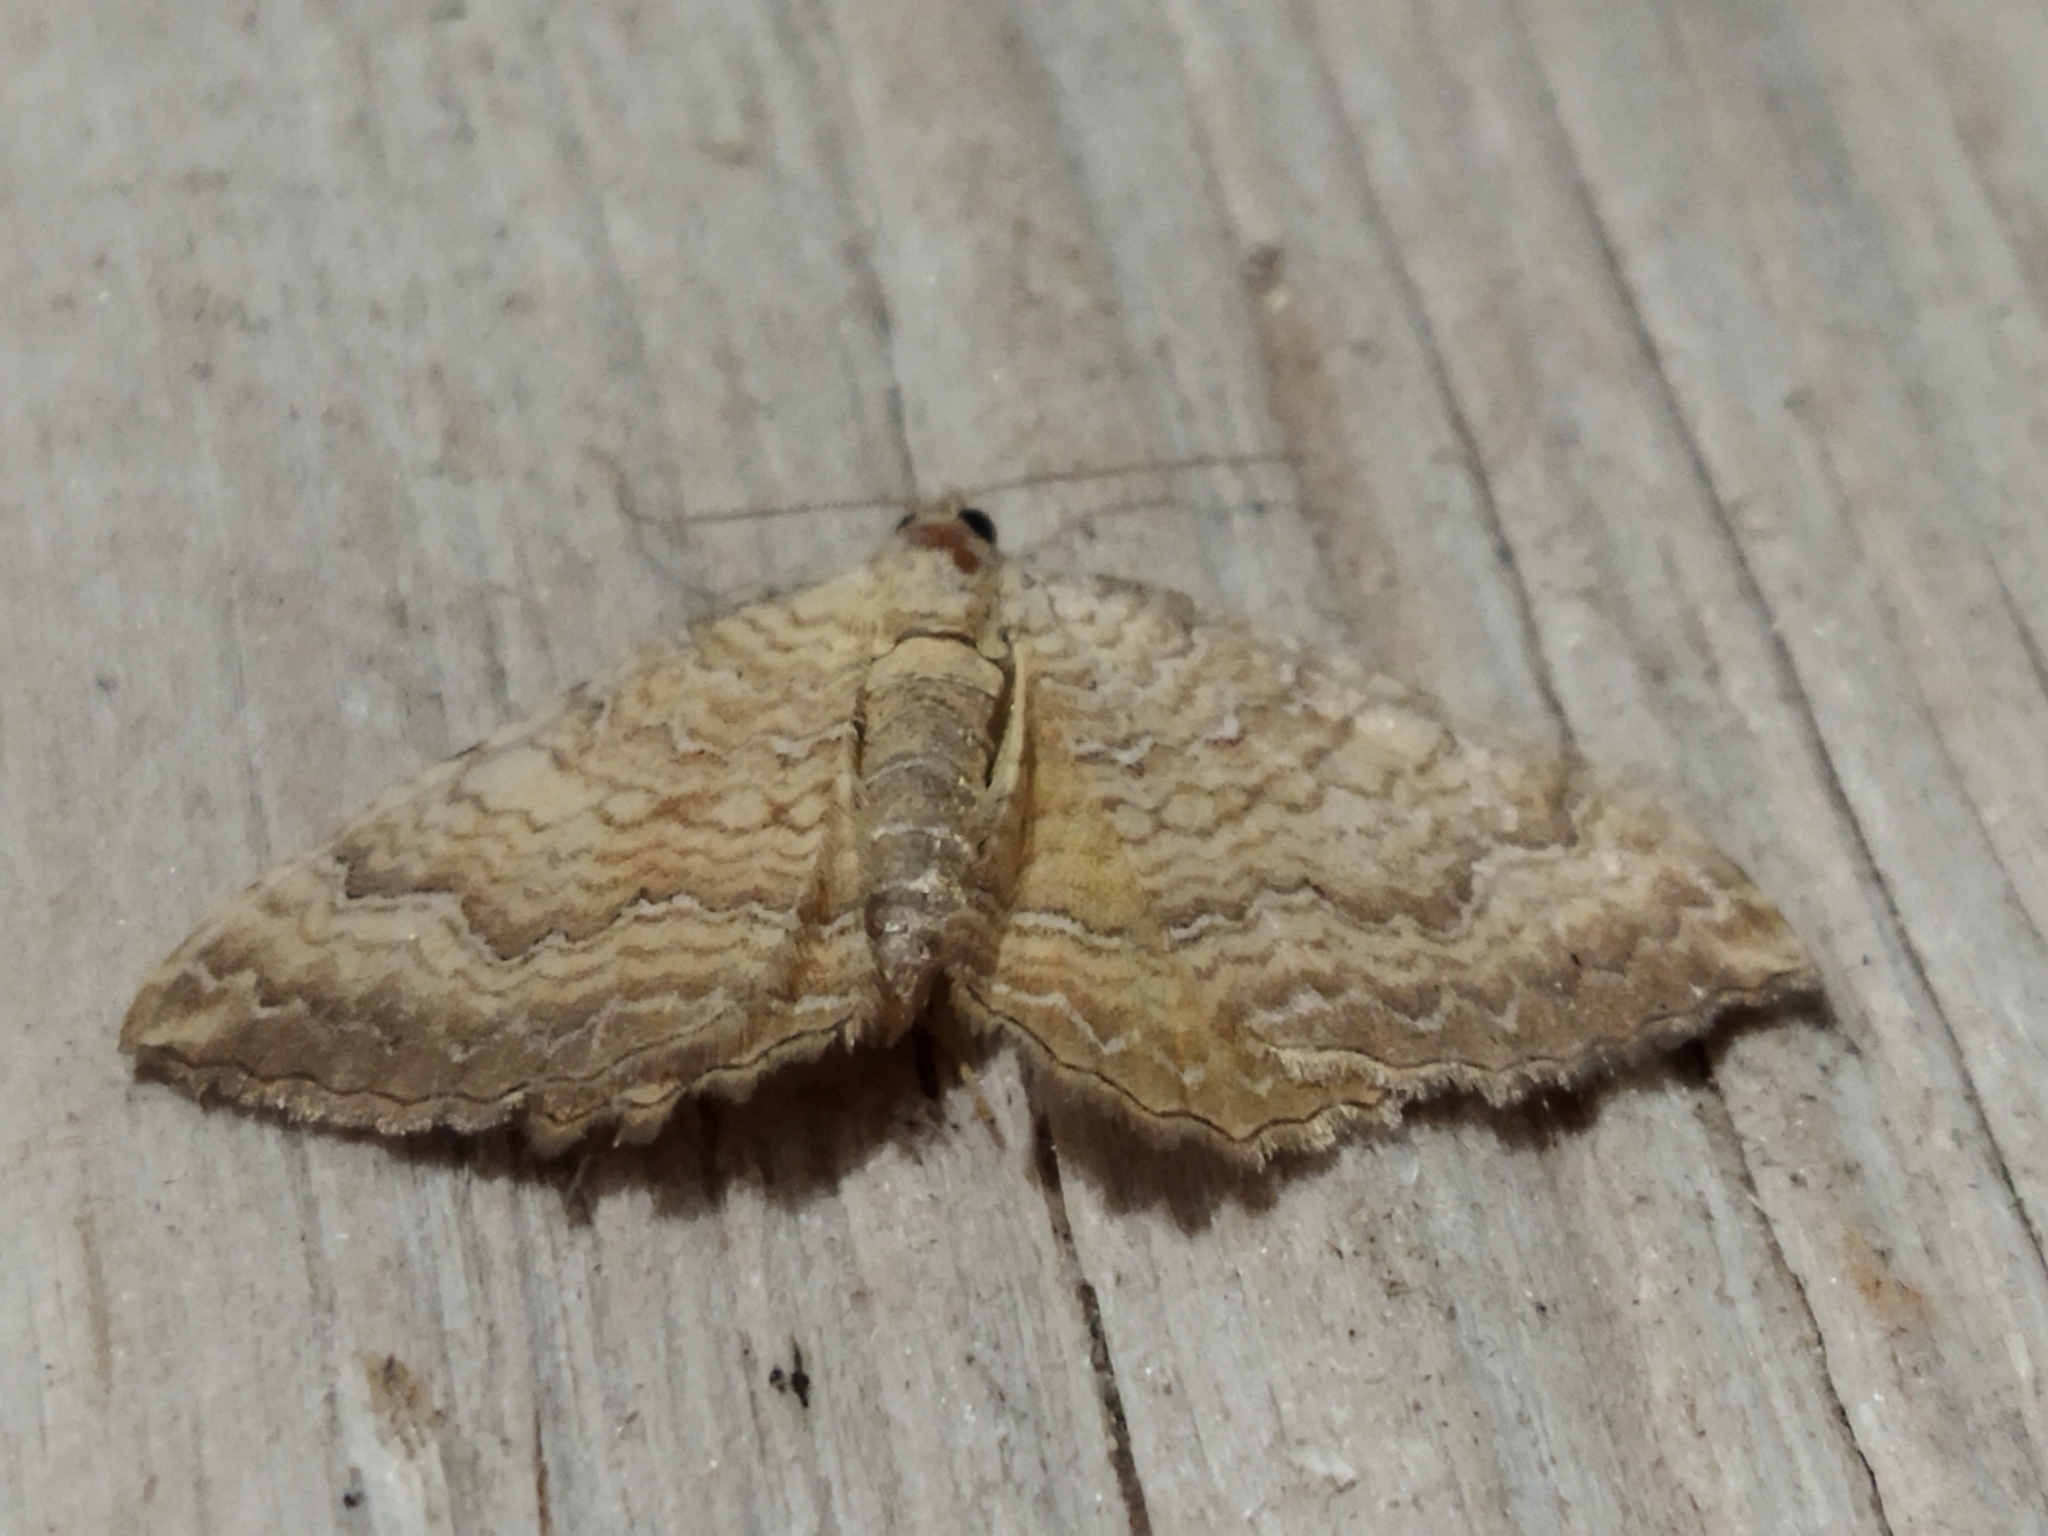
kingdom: Animalia
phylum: Arthropoda
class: Insecta
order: Lepidoptera
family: Geometridae
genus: Camptogramma
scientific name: Camptogramma bilineata
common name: Yellow shell
